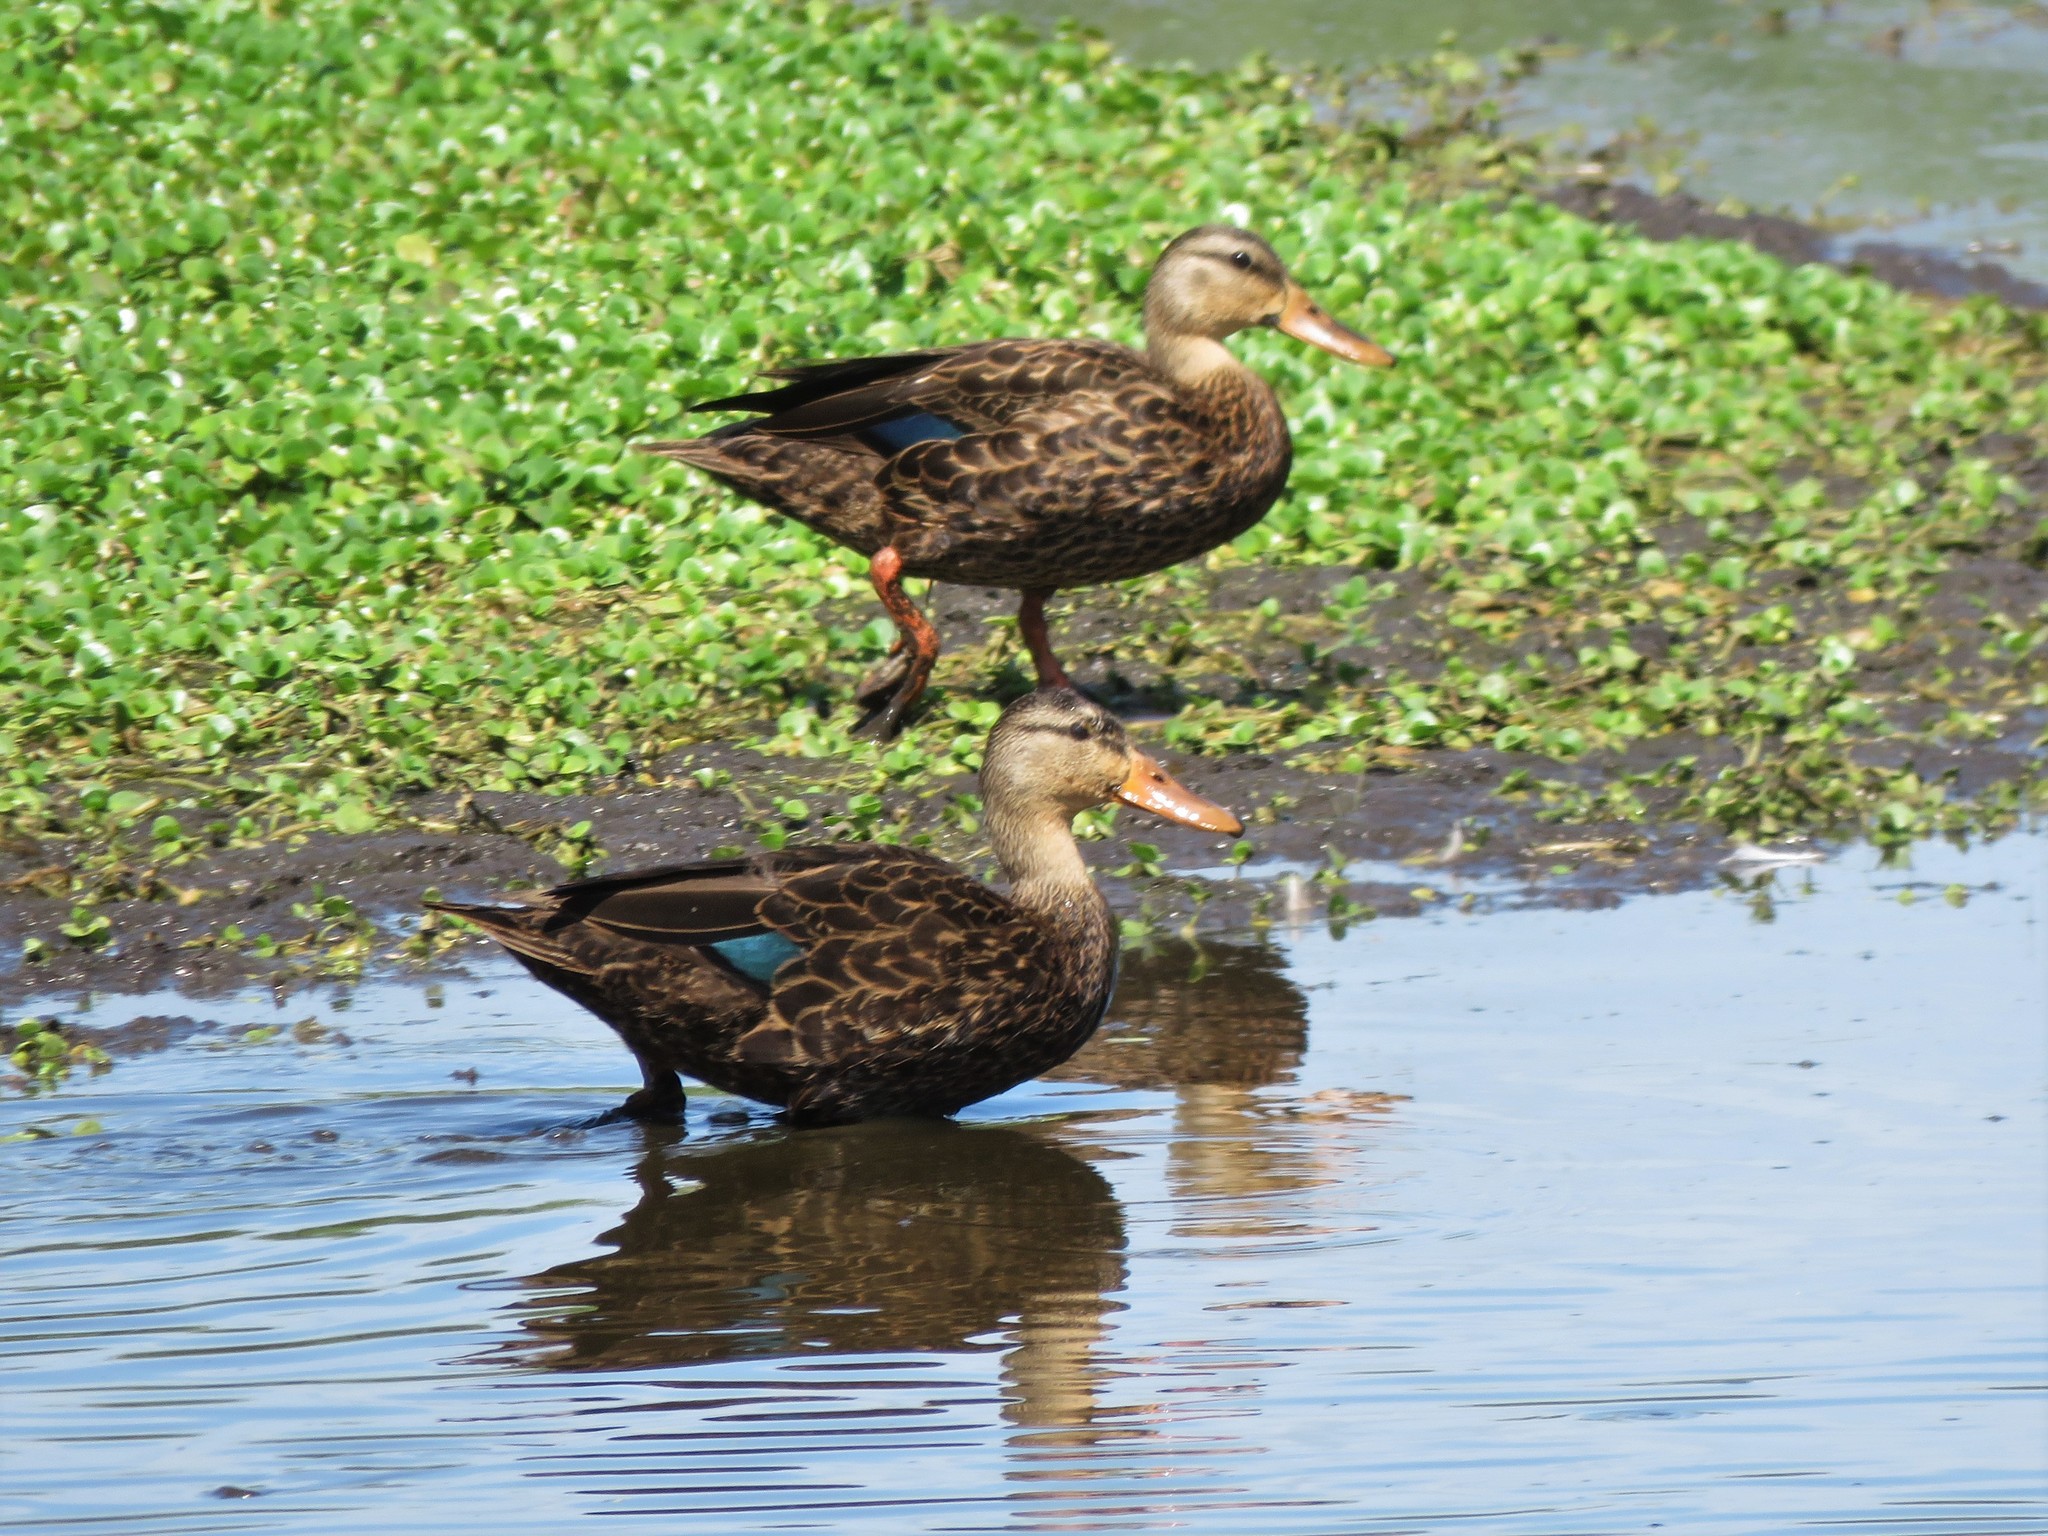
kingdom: Animalia
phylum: Chordata
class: Aves
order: Anseriformes
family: Anatidae
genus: Anas
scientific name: Anas fulvigula
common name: Mottled duck
